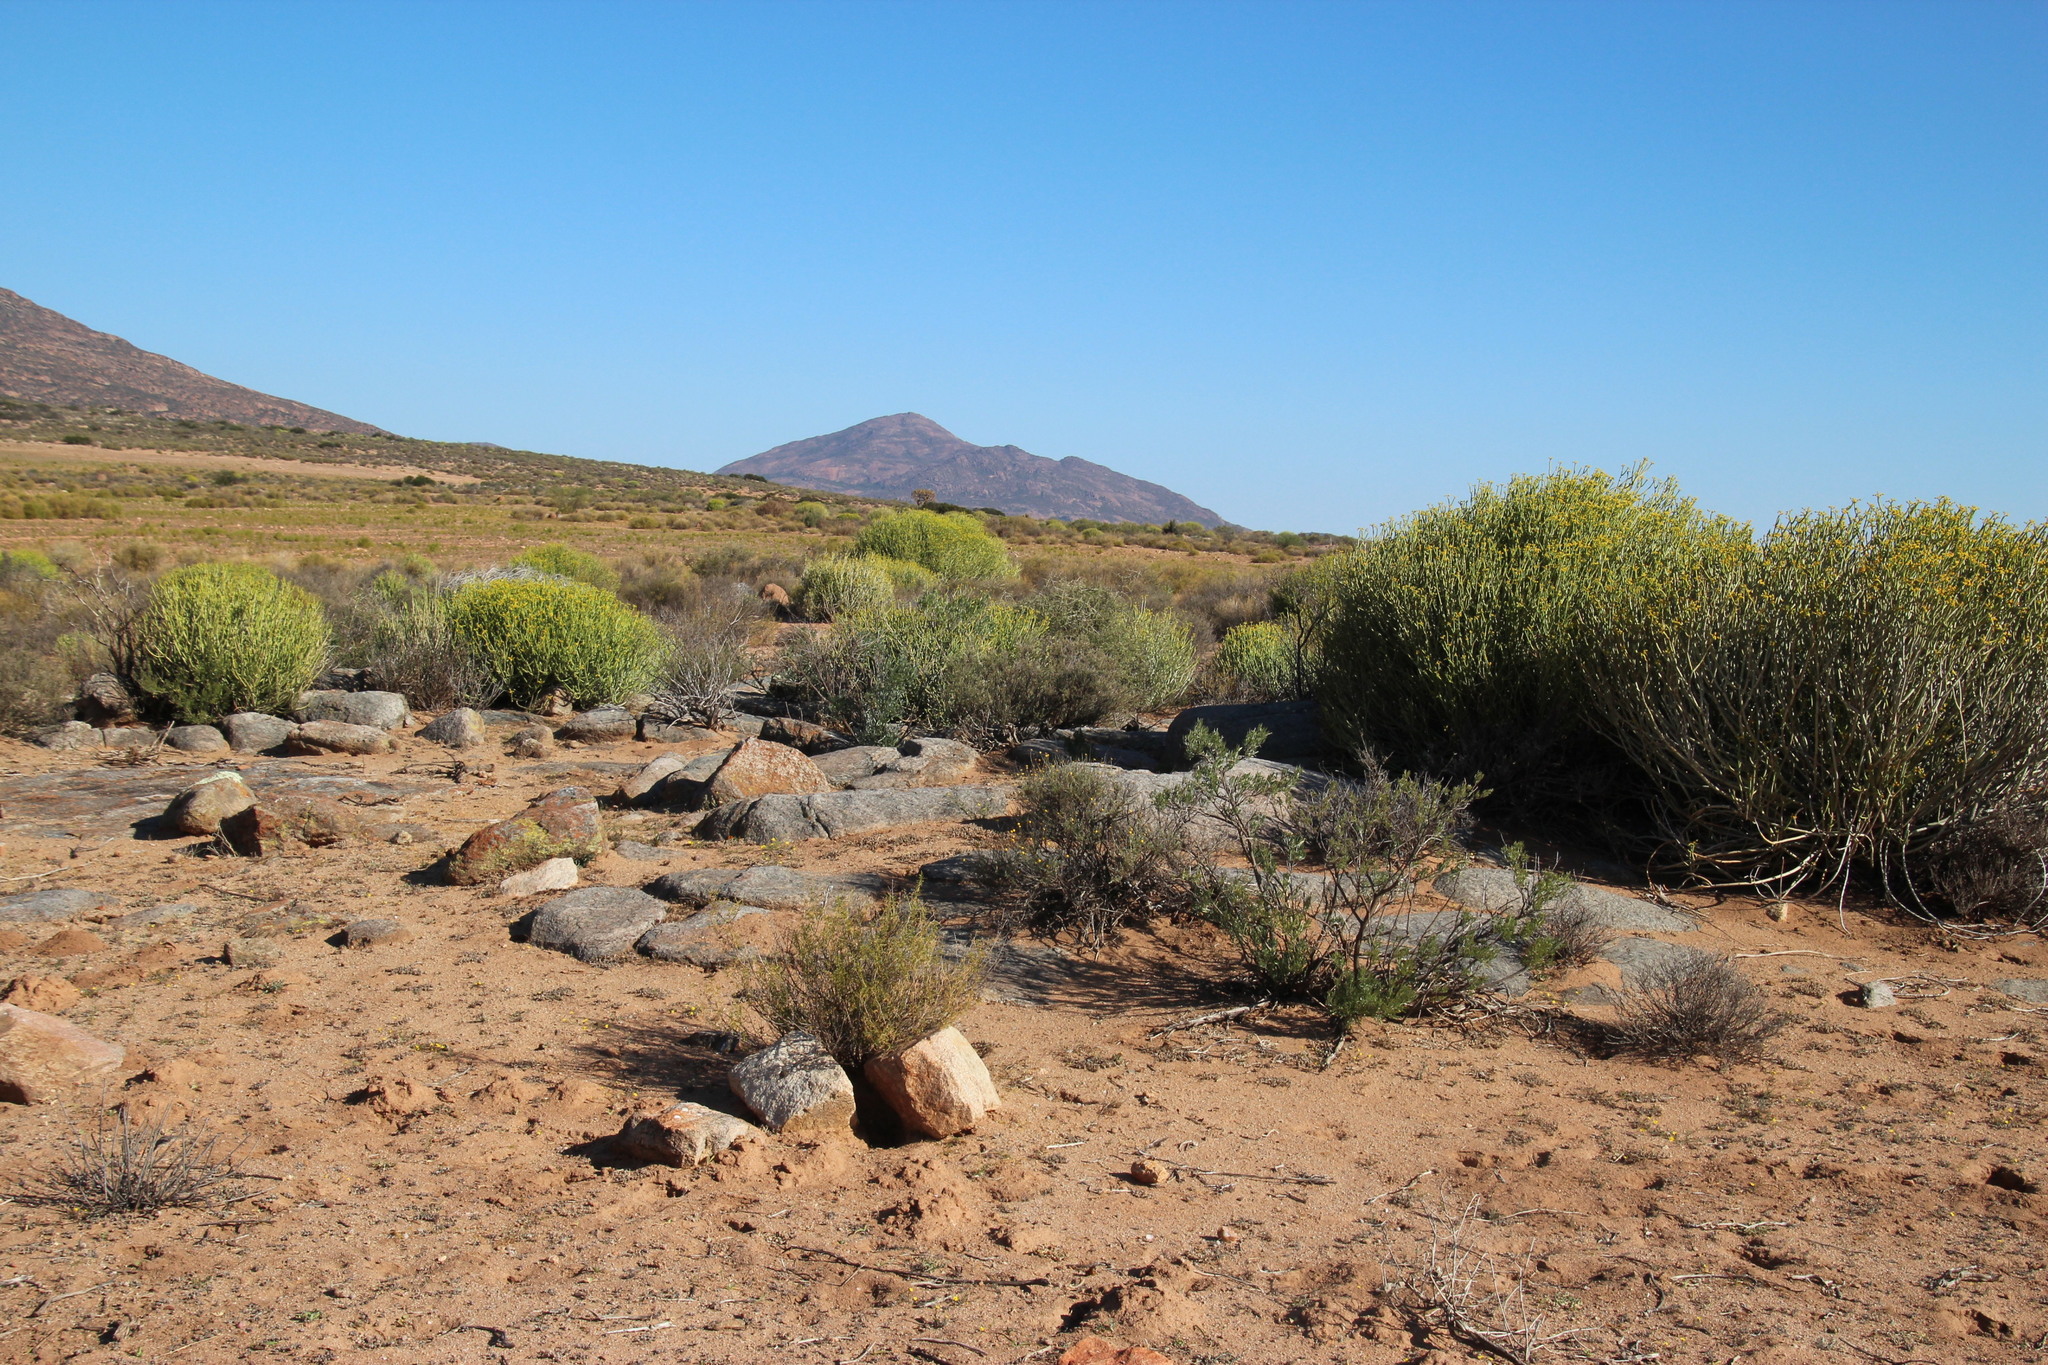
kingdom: Plantae
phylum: Tracheophyta
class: Magnoliopsida
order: Malpighiales
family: Euphorbiaceae
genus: Euphorbia
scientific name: Euphorbia mauritanica
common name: Jackal's-food
